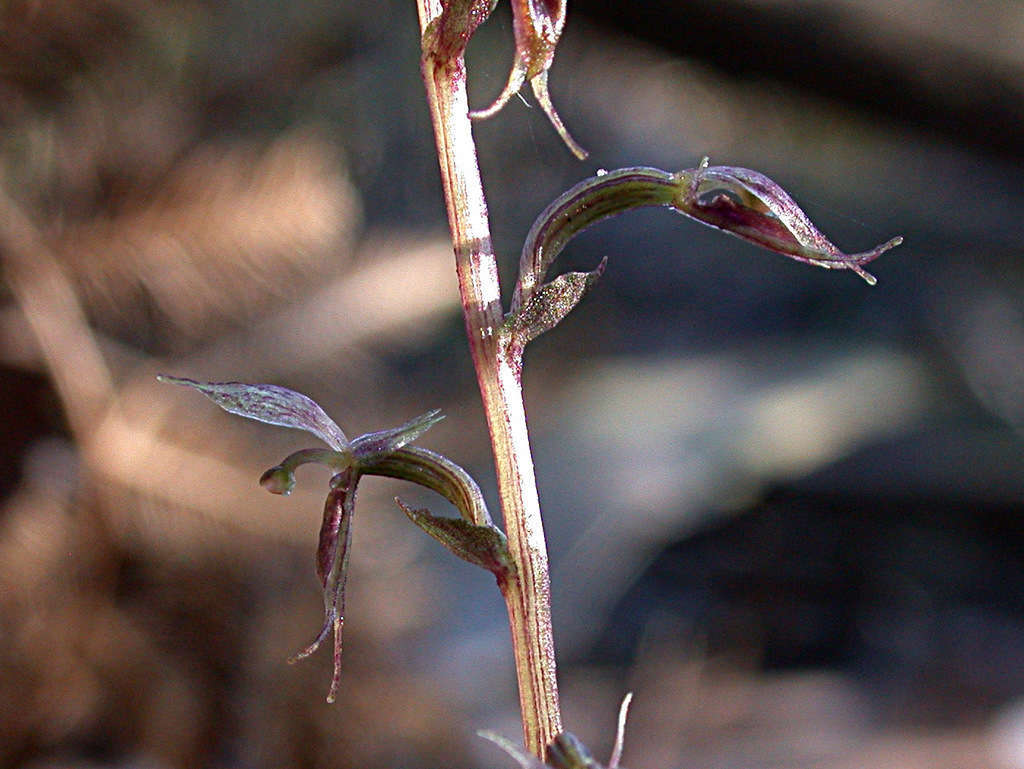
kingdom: Plantae
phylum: Tracheophyta
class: Liliopsida
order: Asparagales
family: Orchidaceae
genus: Acianthus
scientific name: Acianthus pusillus
